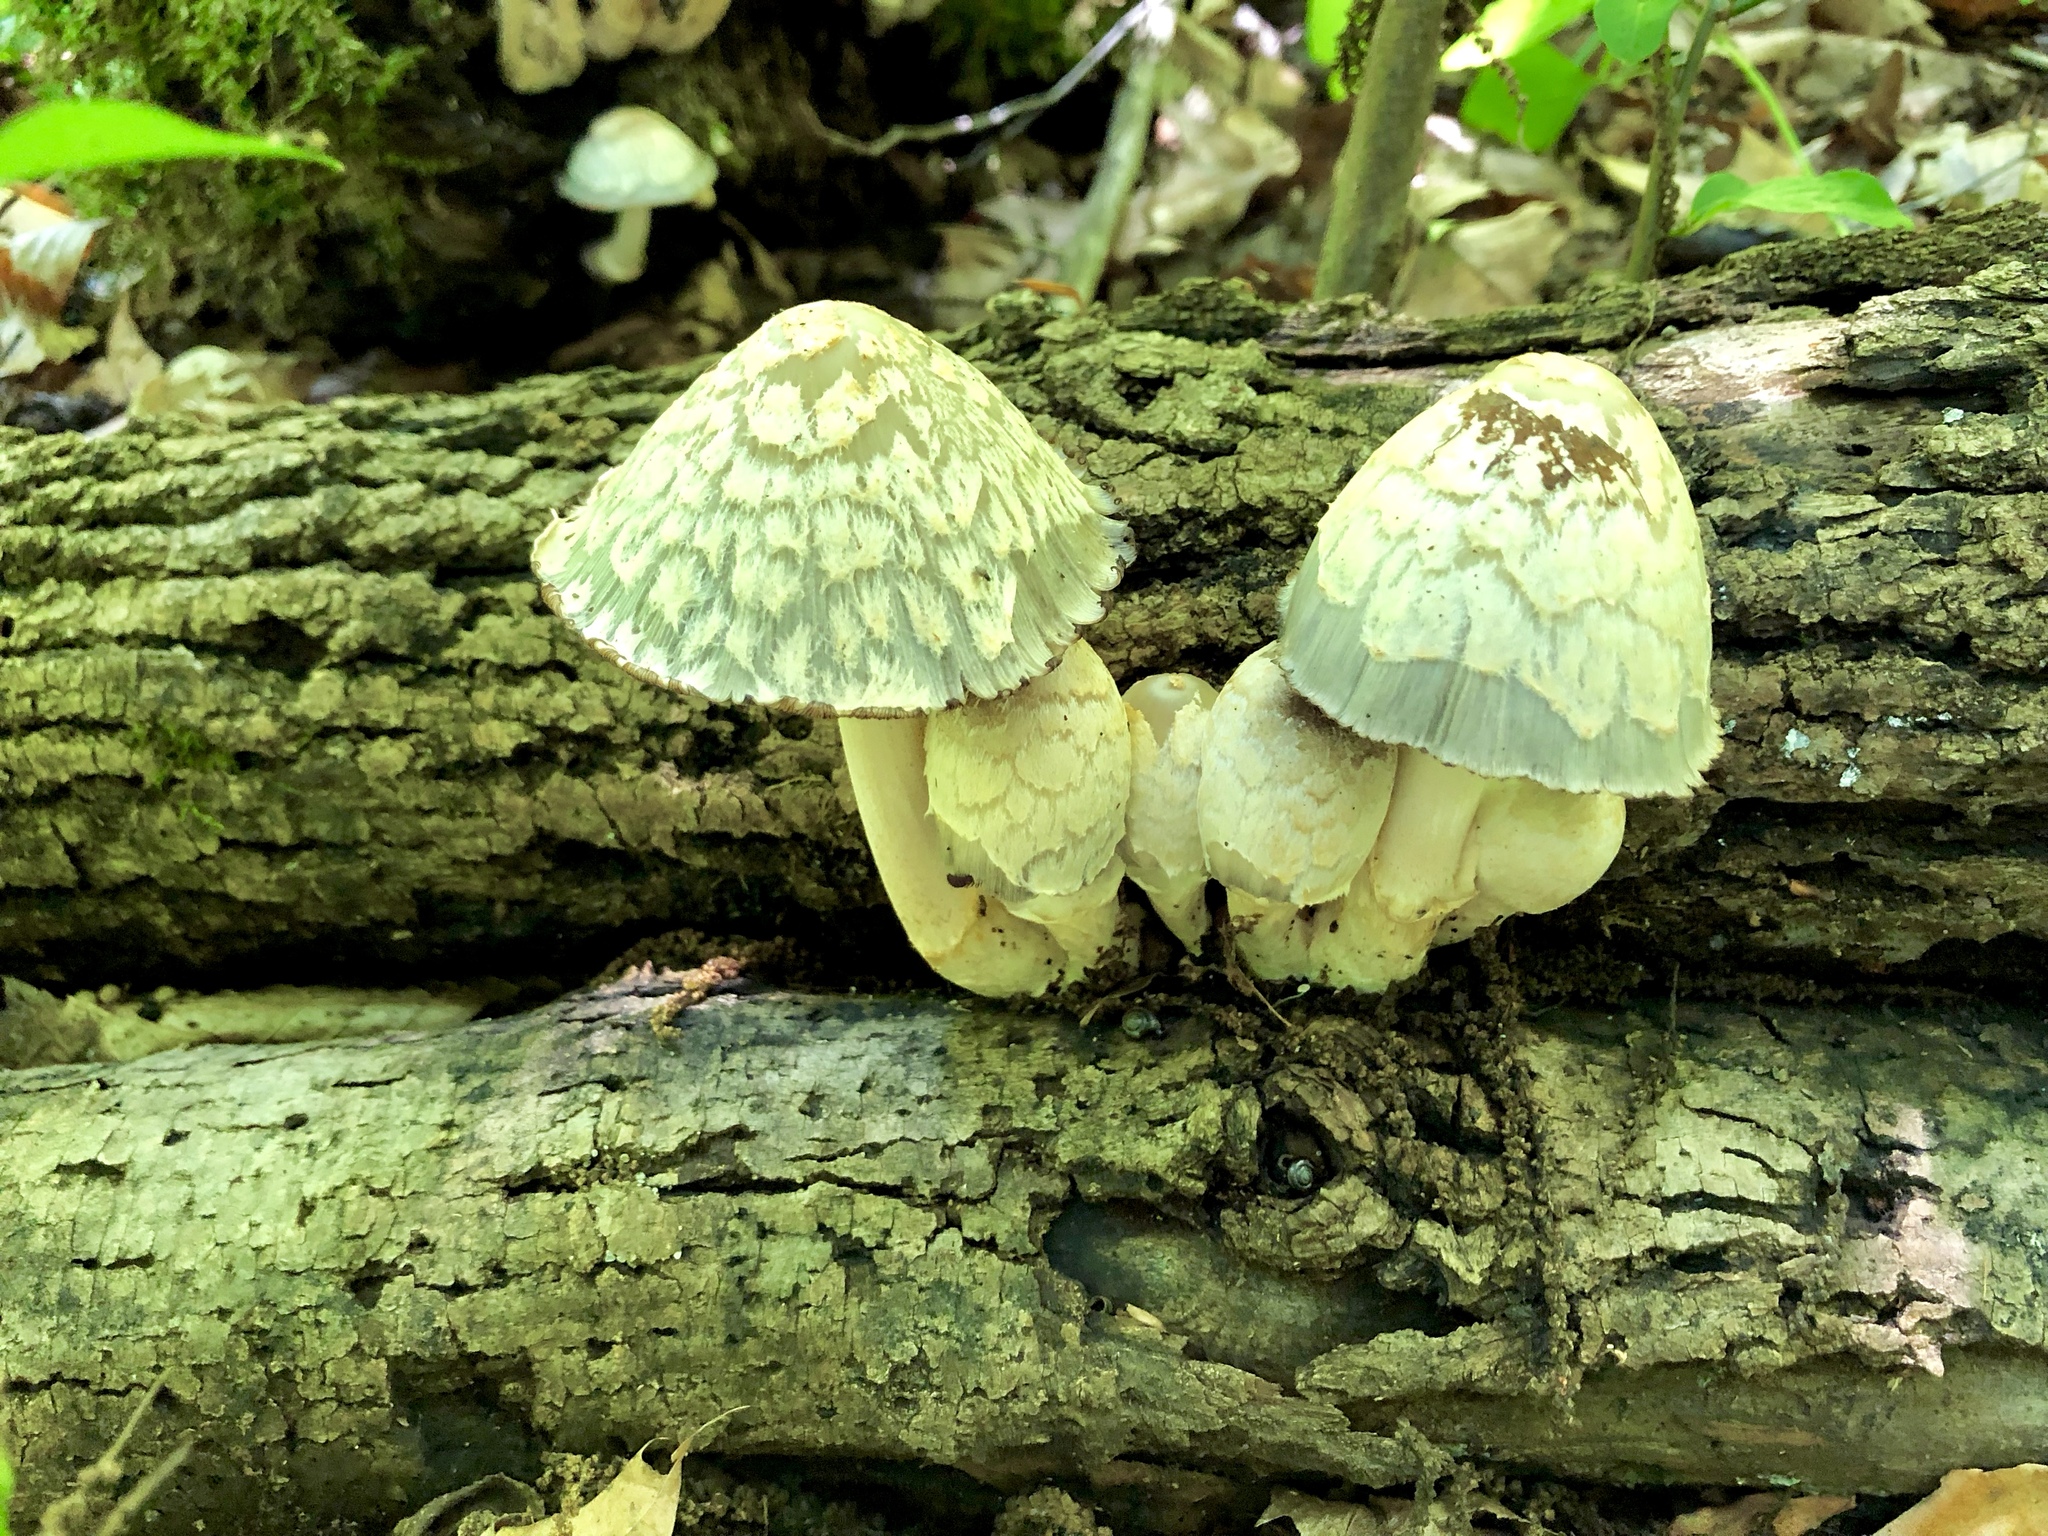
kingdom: Fungi
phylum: Basidiomycota
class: Agaricomycetes
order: Agaricales
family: Psathyrellaceae
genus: Coprinopsis
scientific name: Coprinopsis variegata
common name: Scaly ink cap
